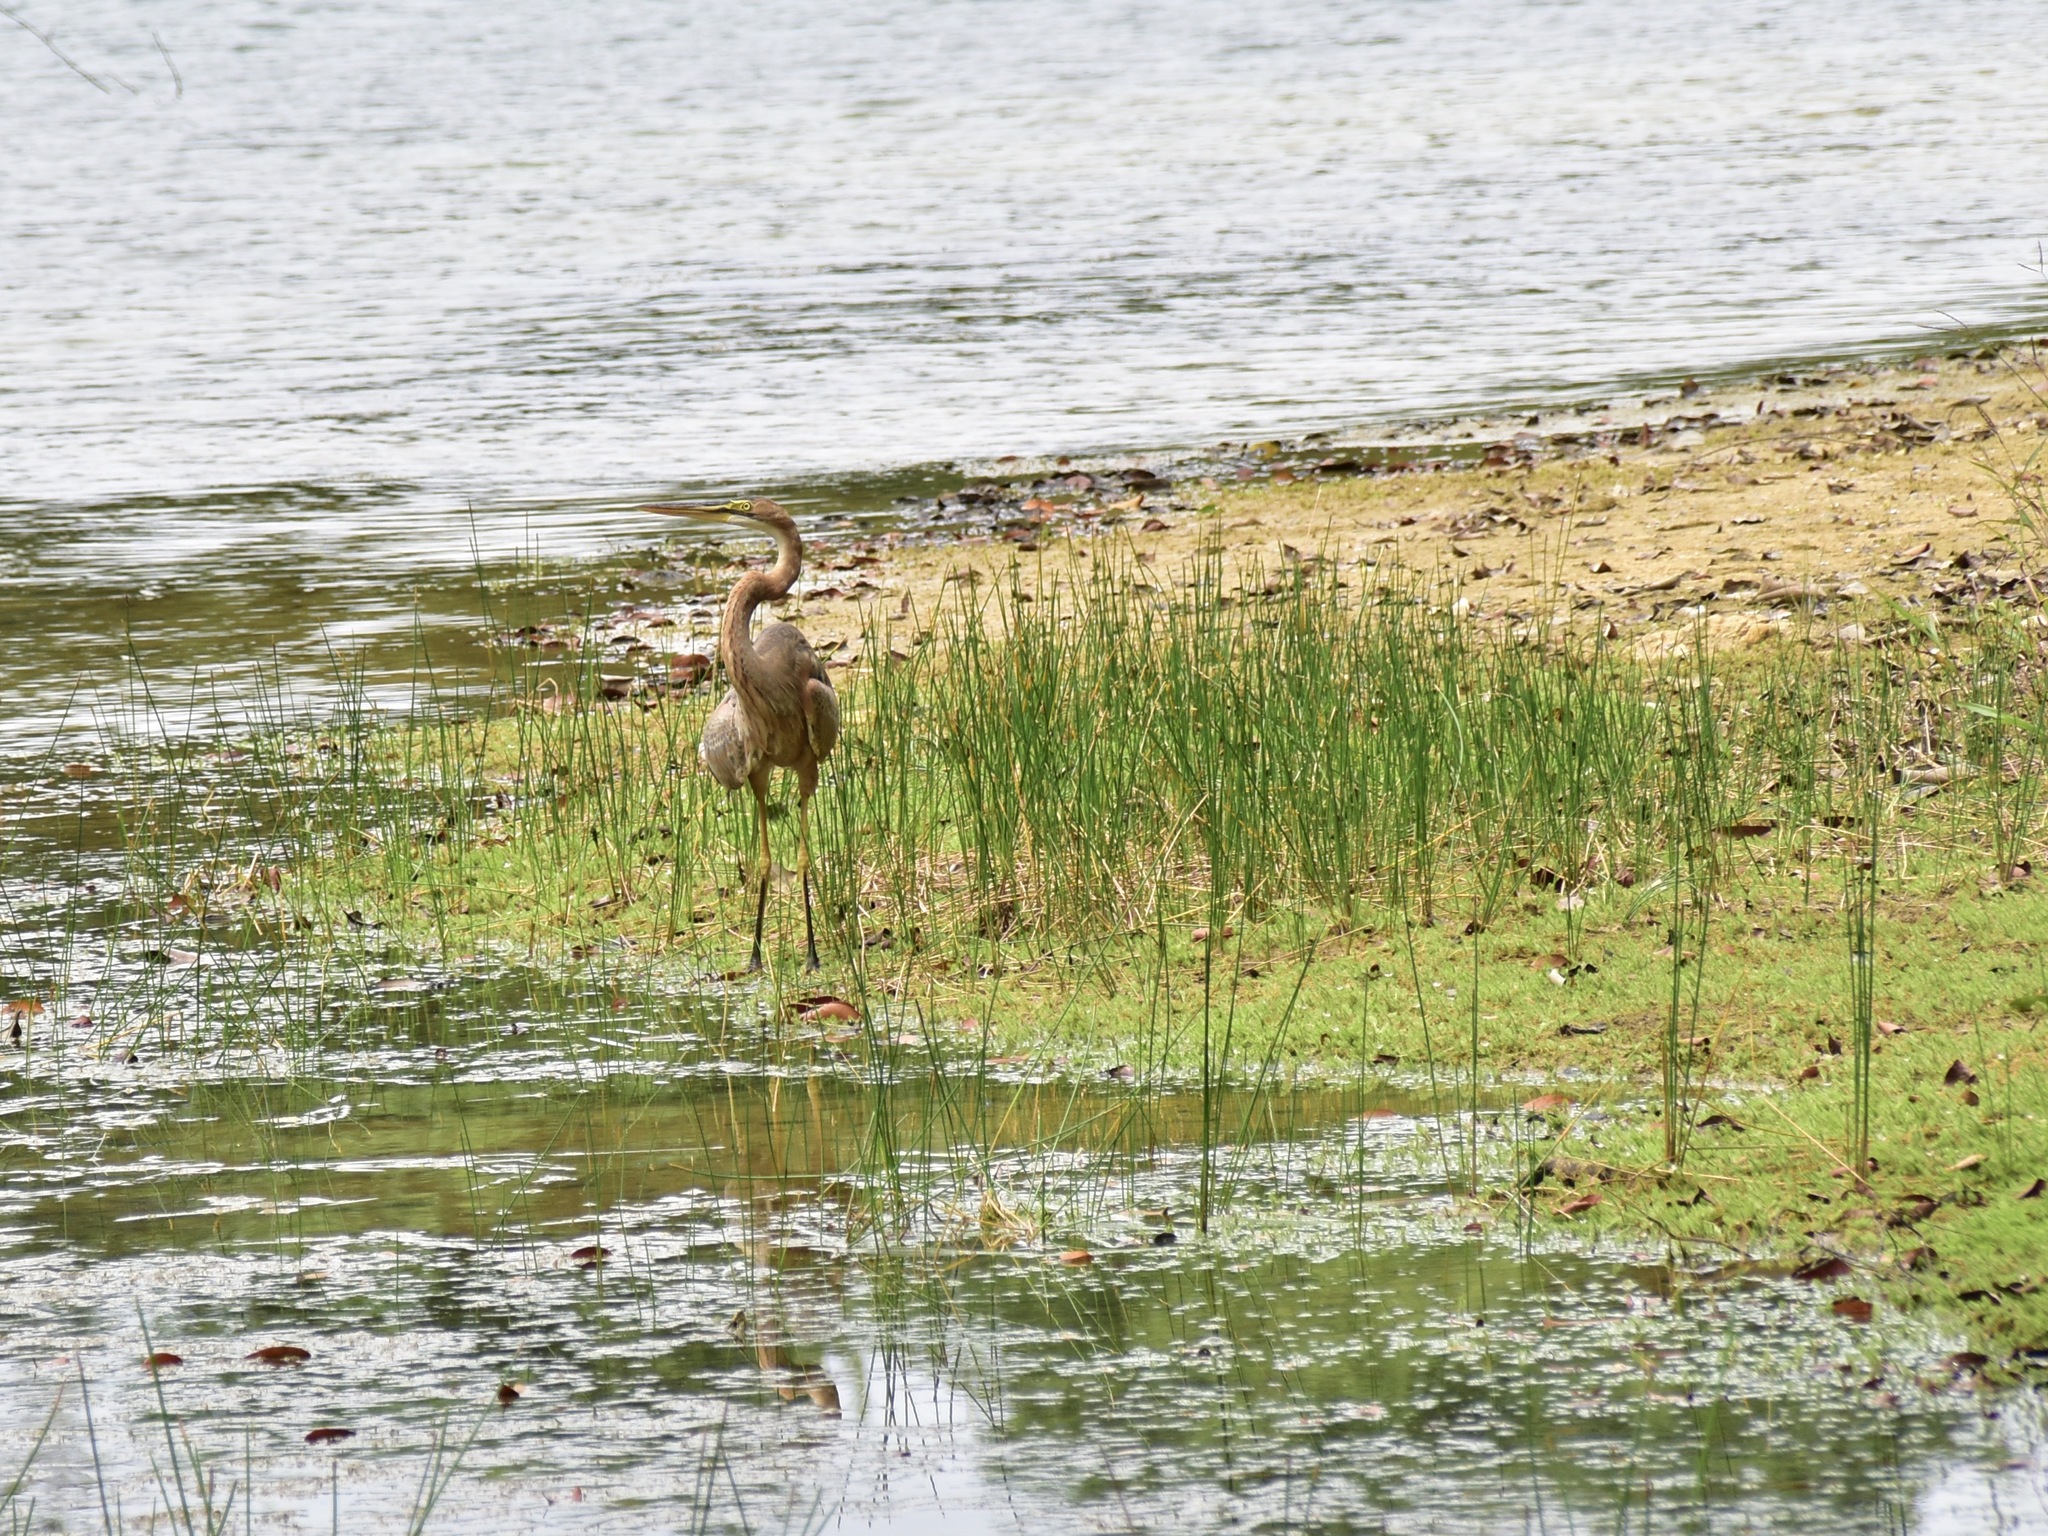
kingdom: Animalia
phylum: Chordata
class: Aves
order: Pelecaniformes
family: Ardeidae
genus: Ardea
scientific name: Ardea purpurea
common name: Purple heron
